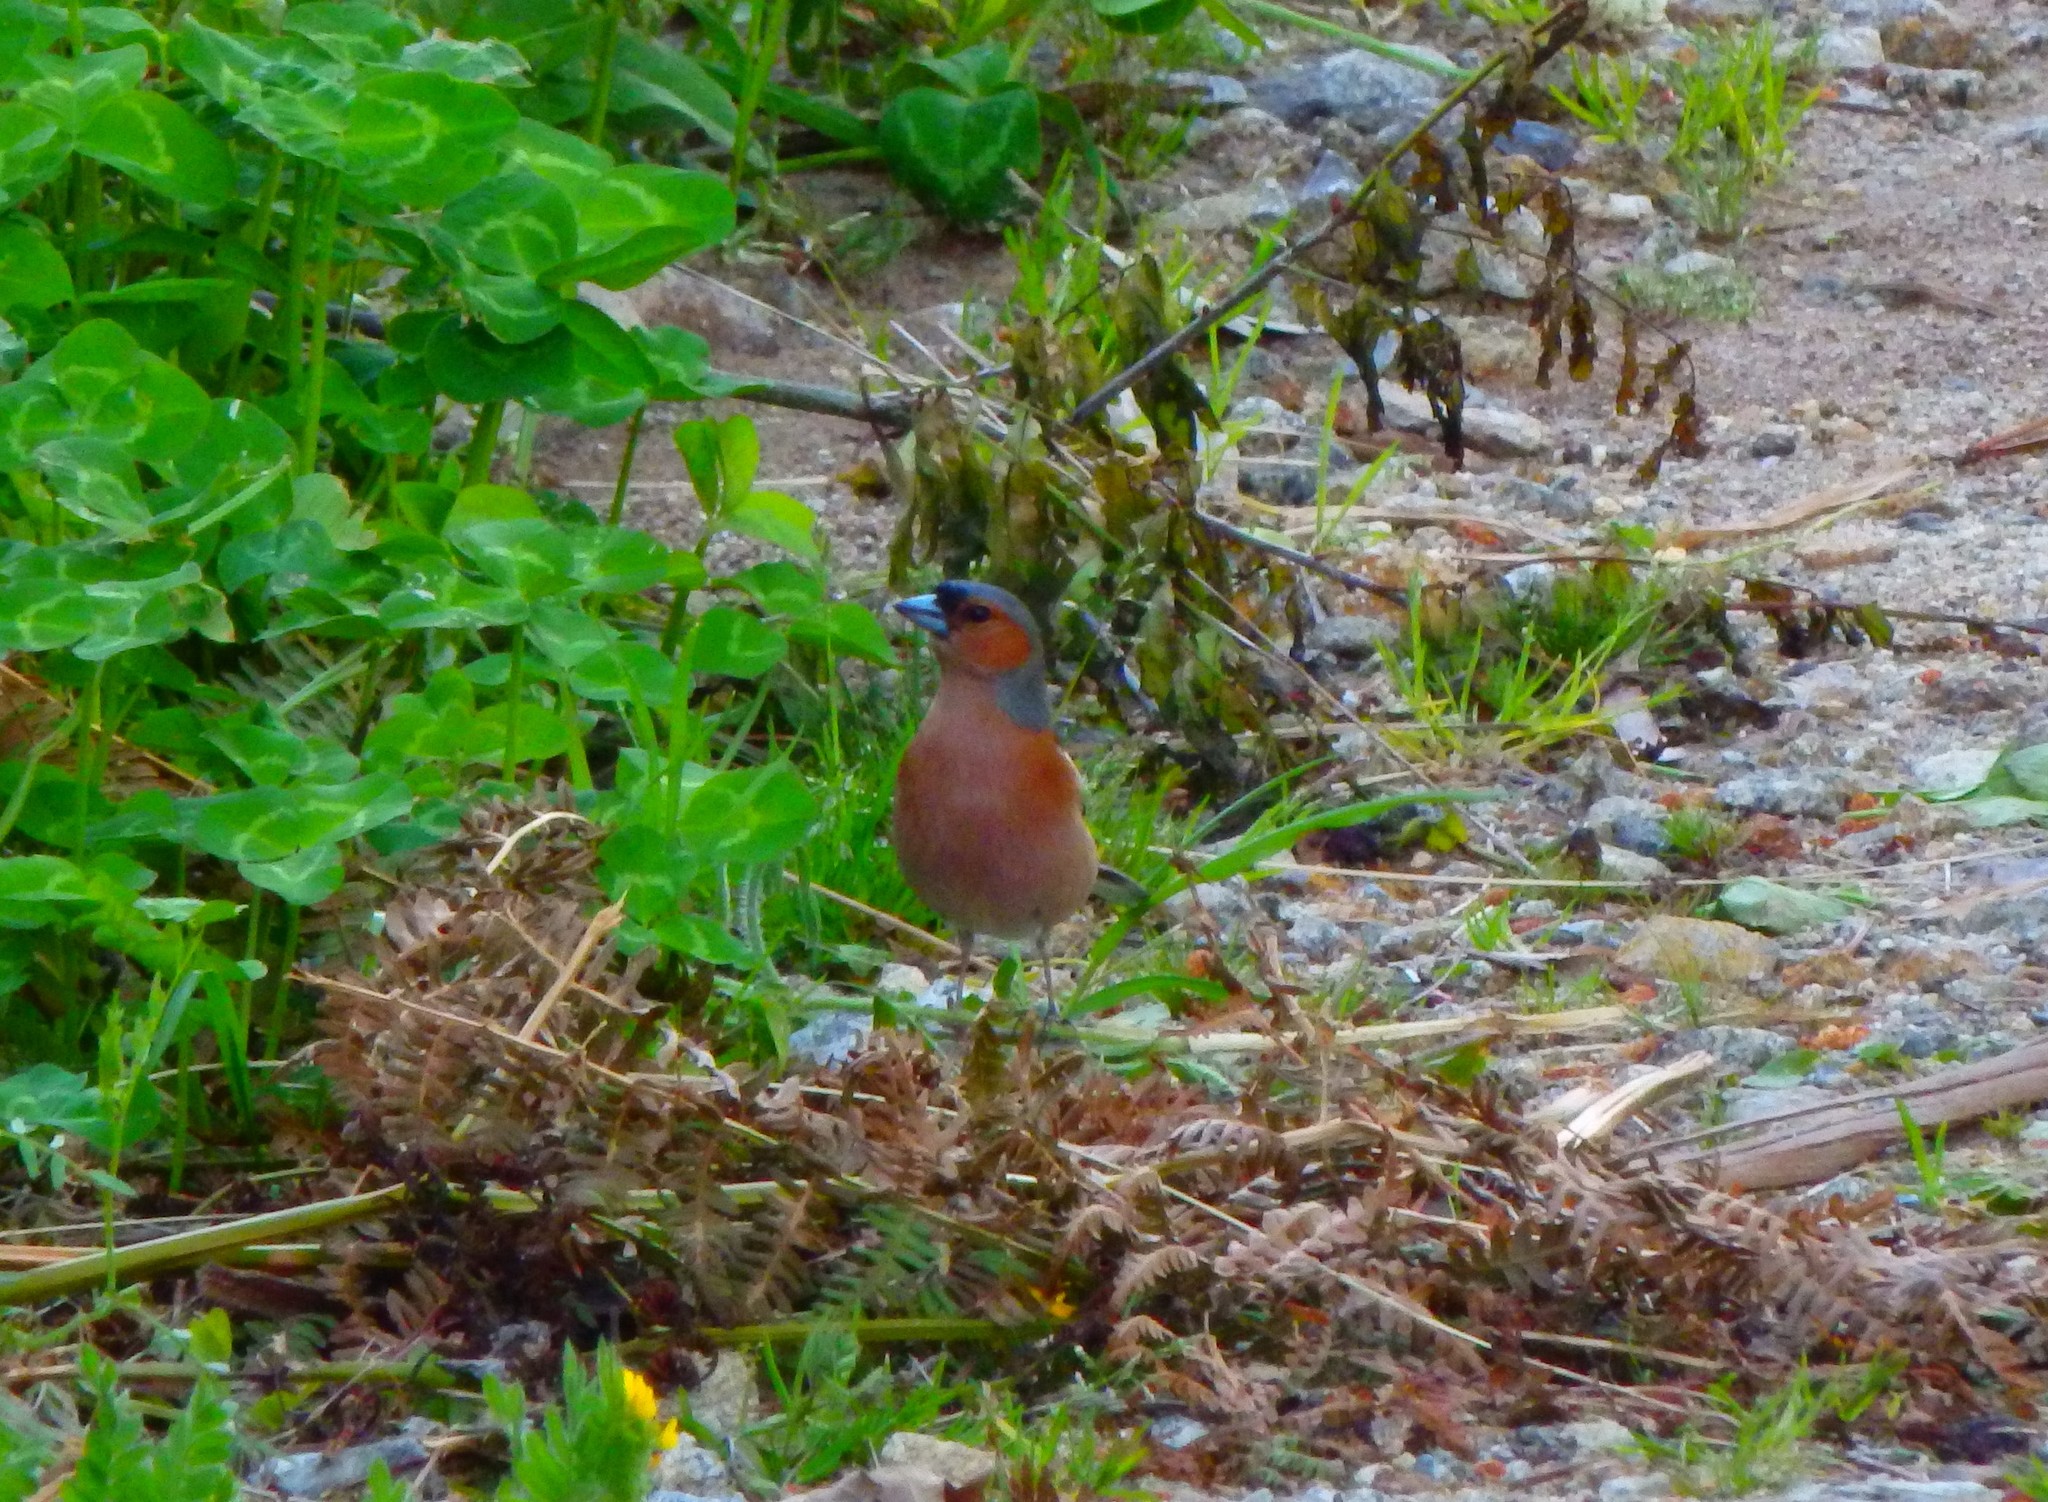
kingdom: Animalia
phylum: Chordata
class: Aves
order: Passeriformes
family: Fringillidae
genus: Fringilla
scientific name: Fringilla coelebs
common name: Common chaffinch
